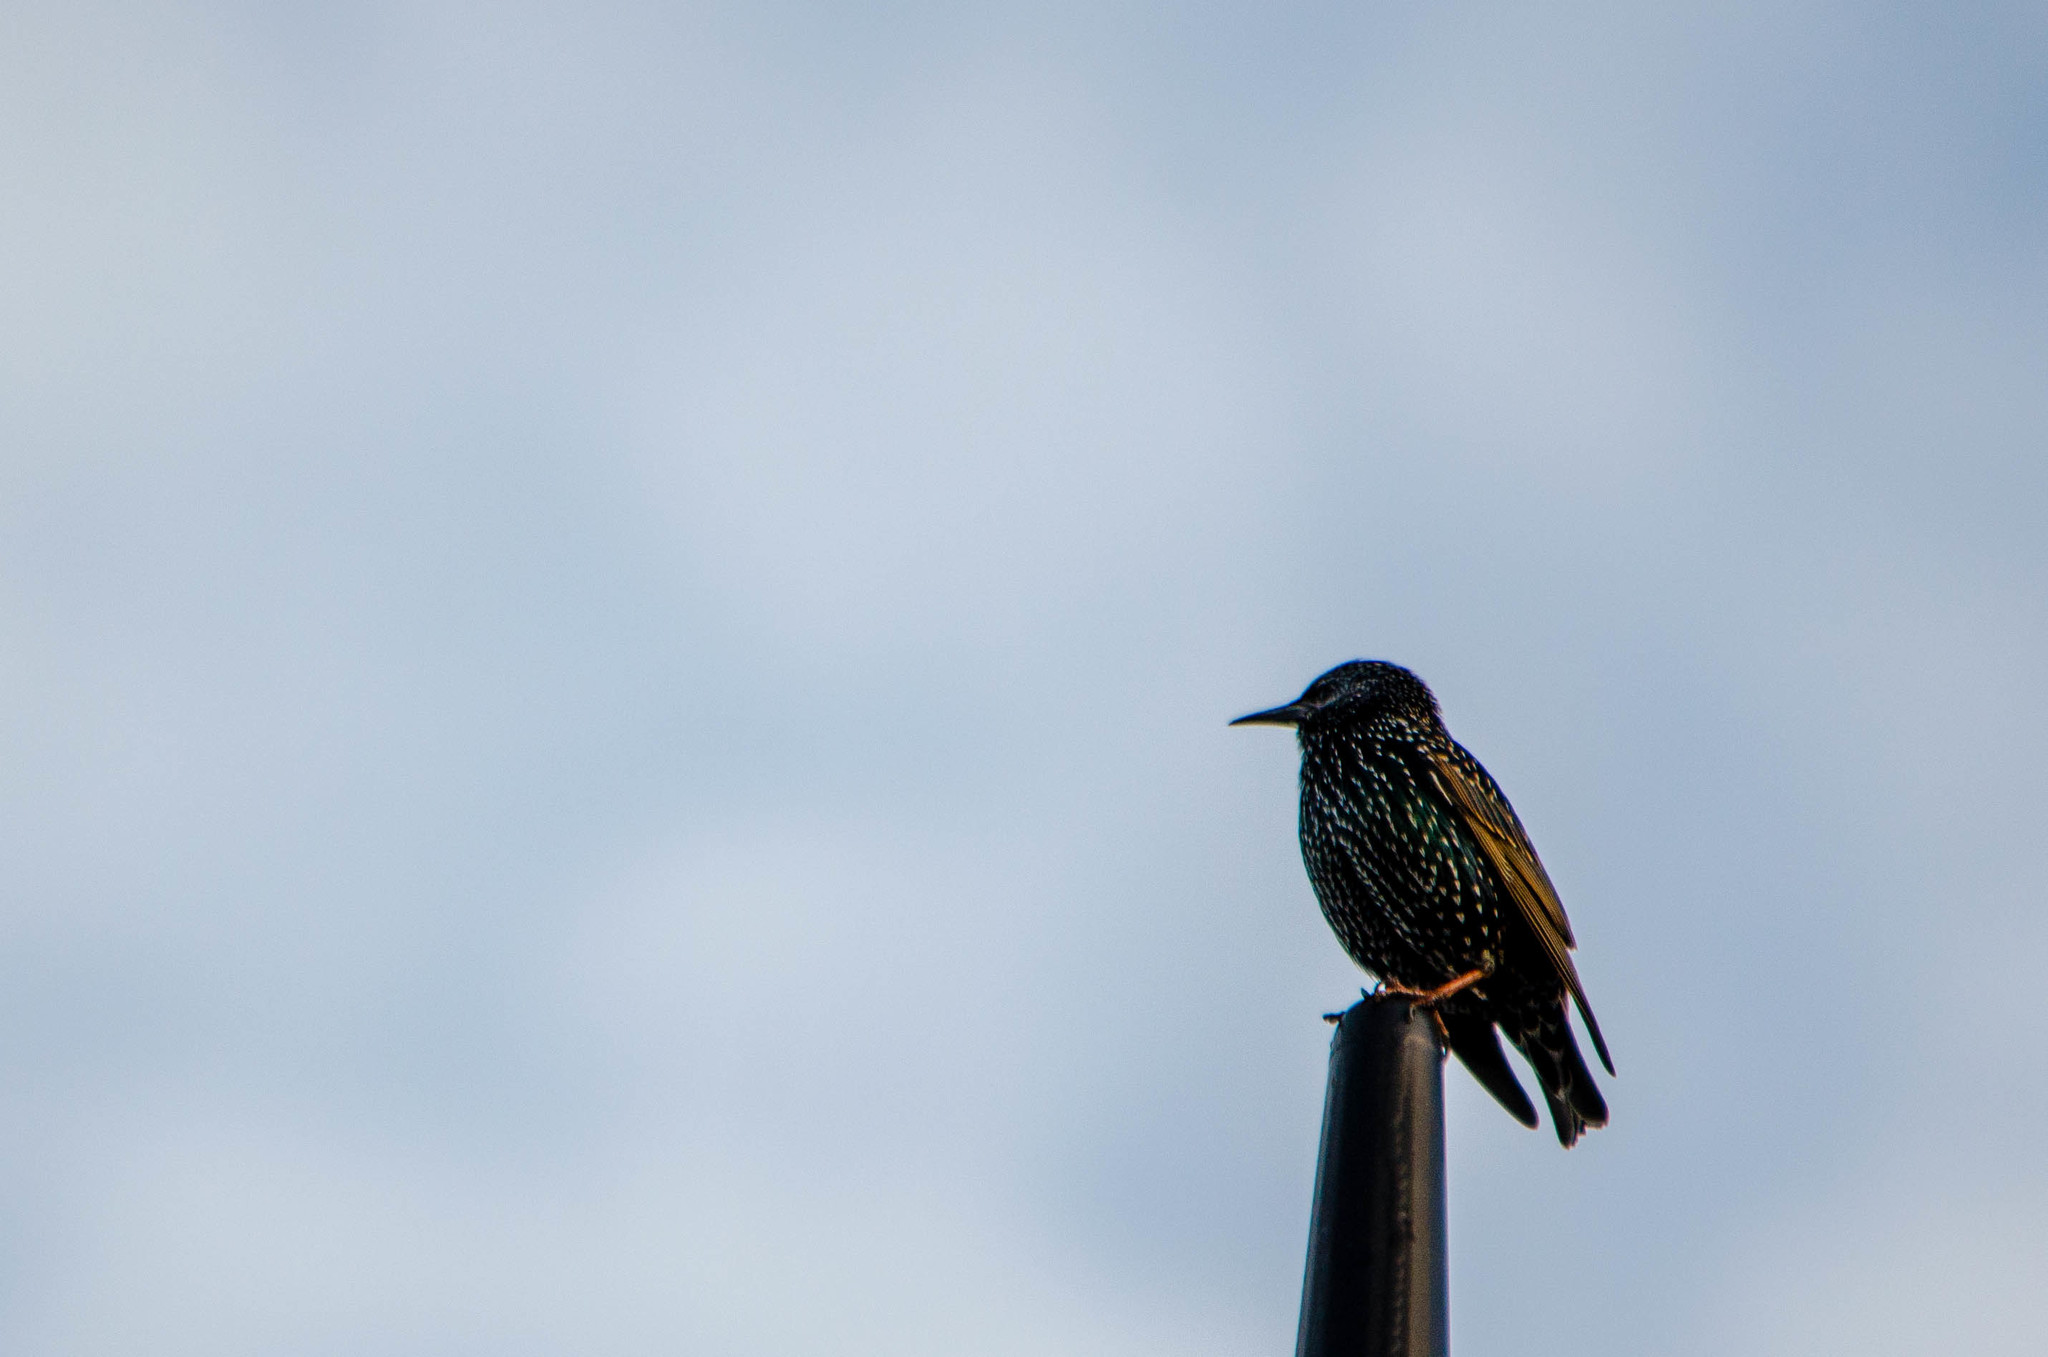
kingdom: Animalia
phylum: Chordata
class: Aves
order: Passeriformes
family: Sturnidae
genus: Sturnus
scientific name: Sturnus vulgaris
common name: Common starling
